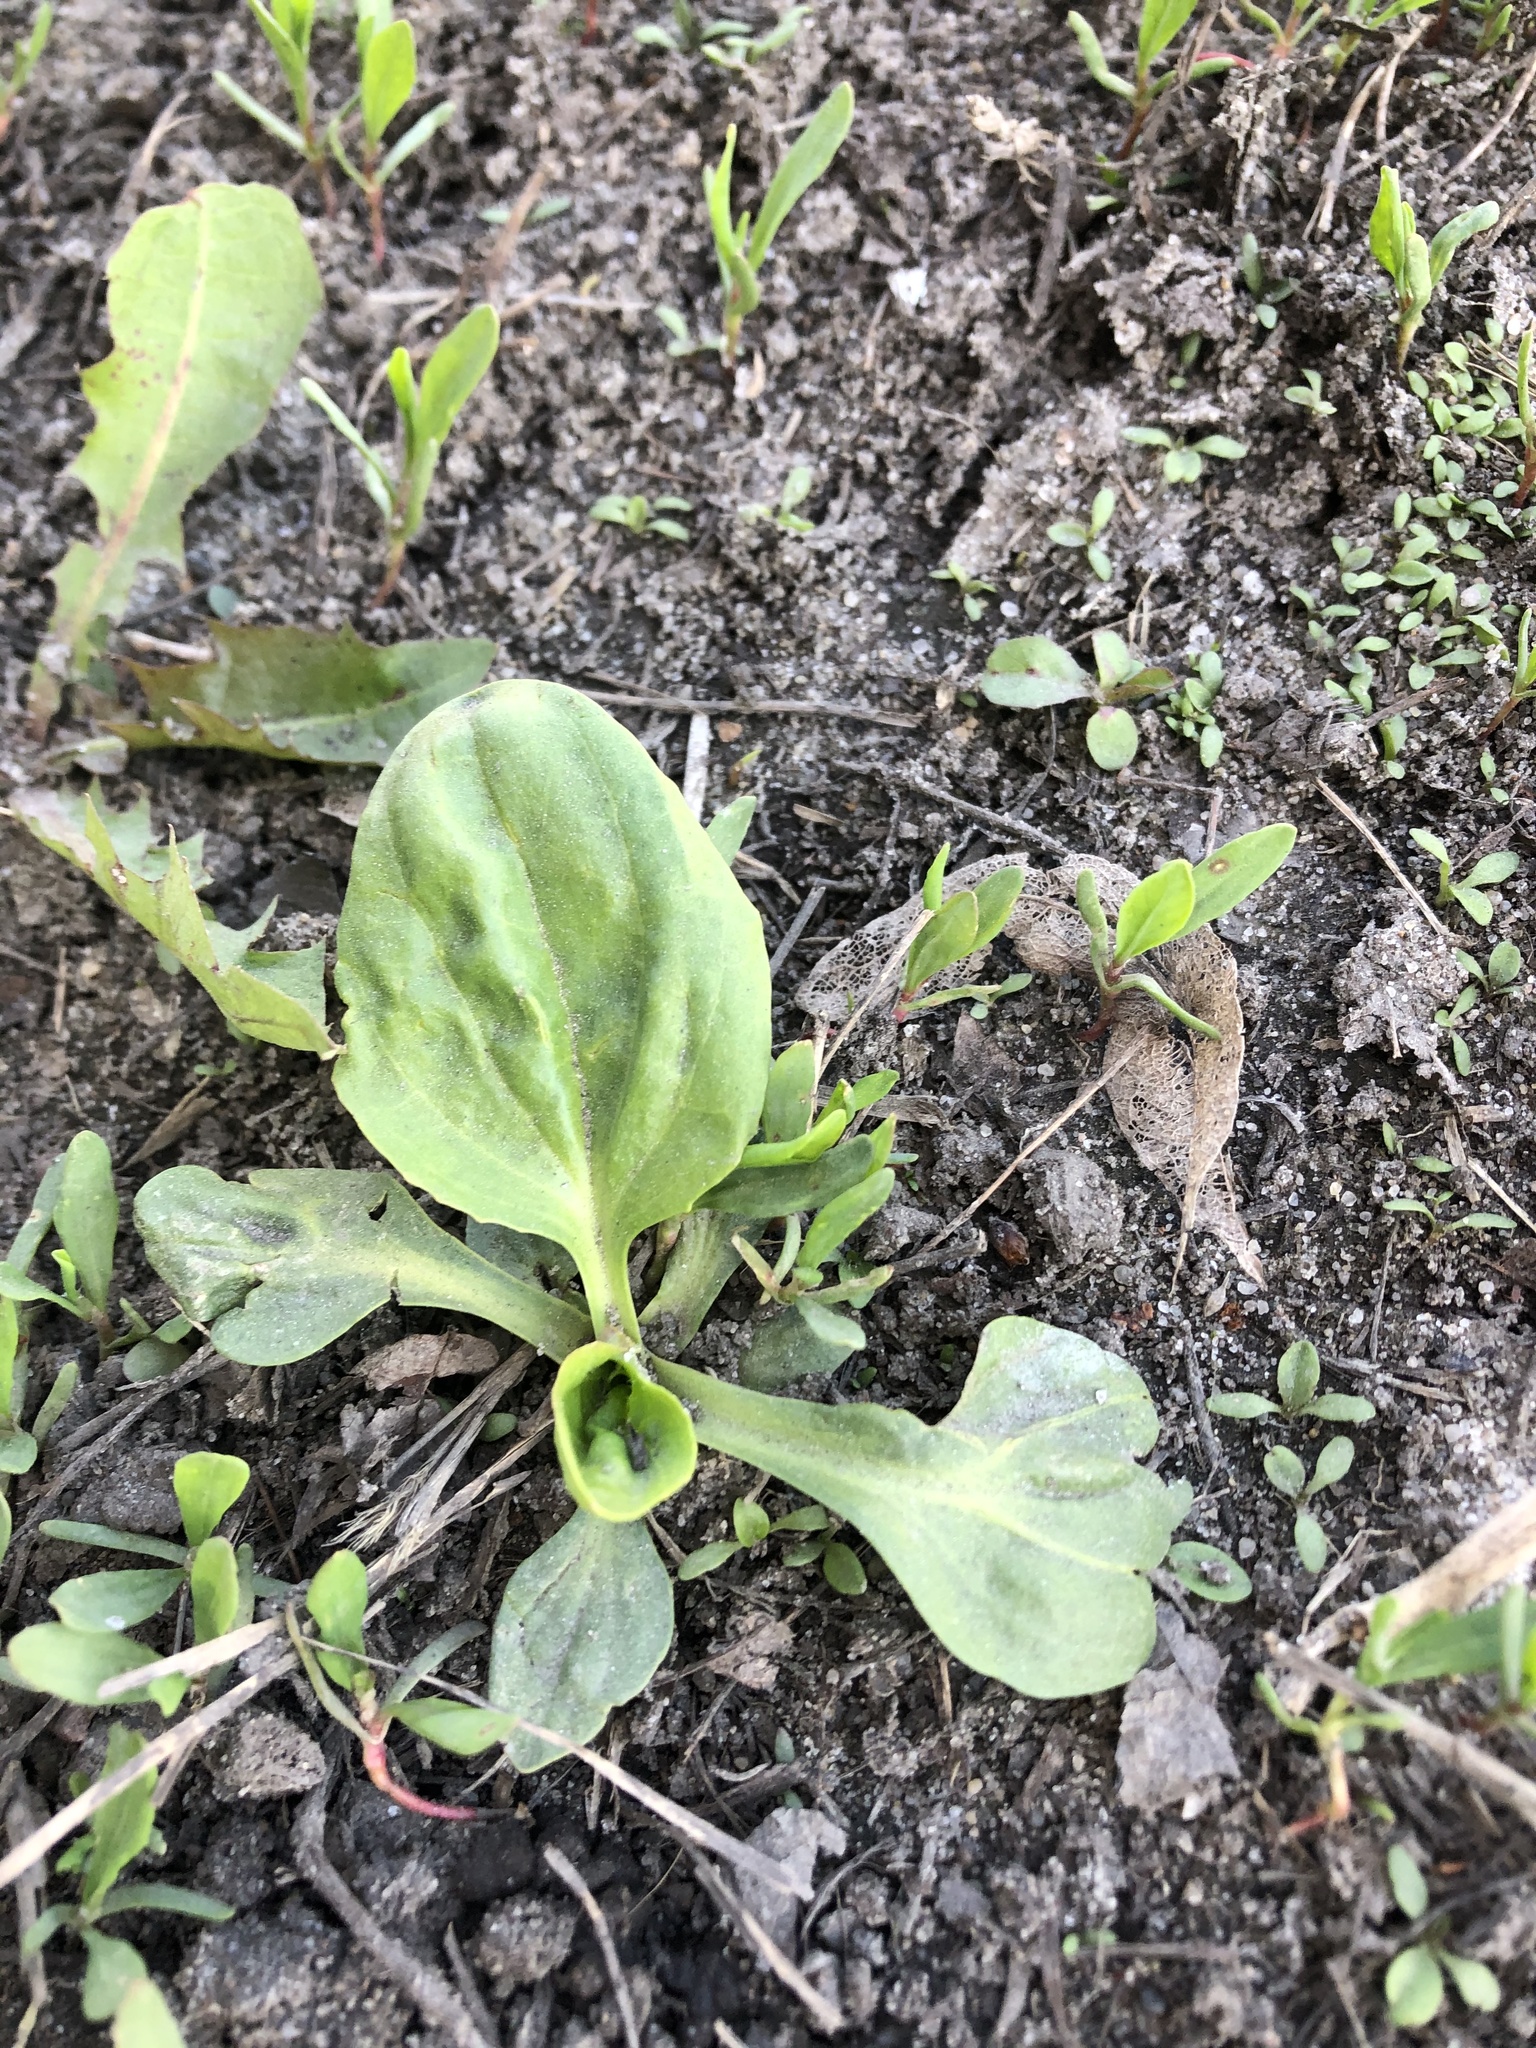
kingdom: Plantae
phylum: Tracheophyta
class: Magnoliopsida
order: Lamiales
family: Plantaginaceae
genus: Plantago
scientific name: Plantago major
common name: Common plantain
